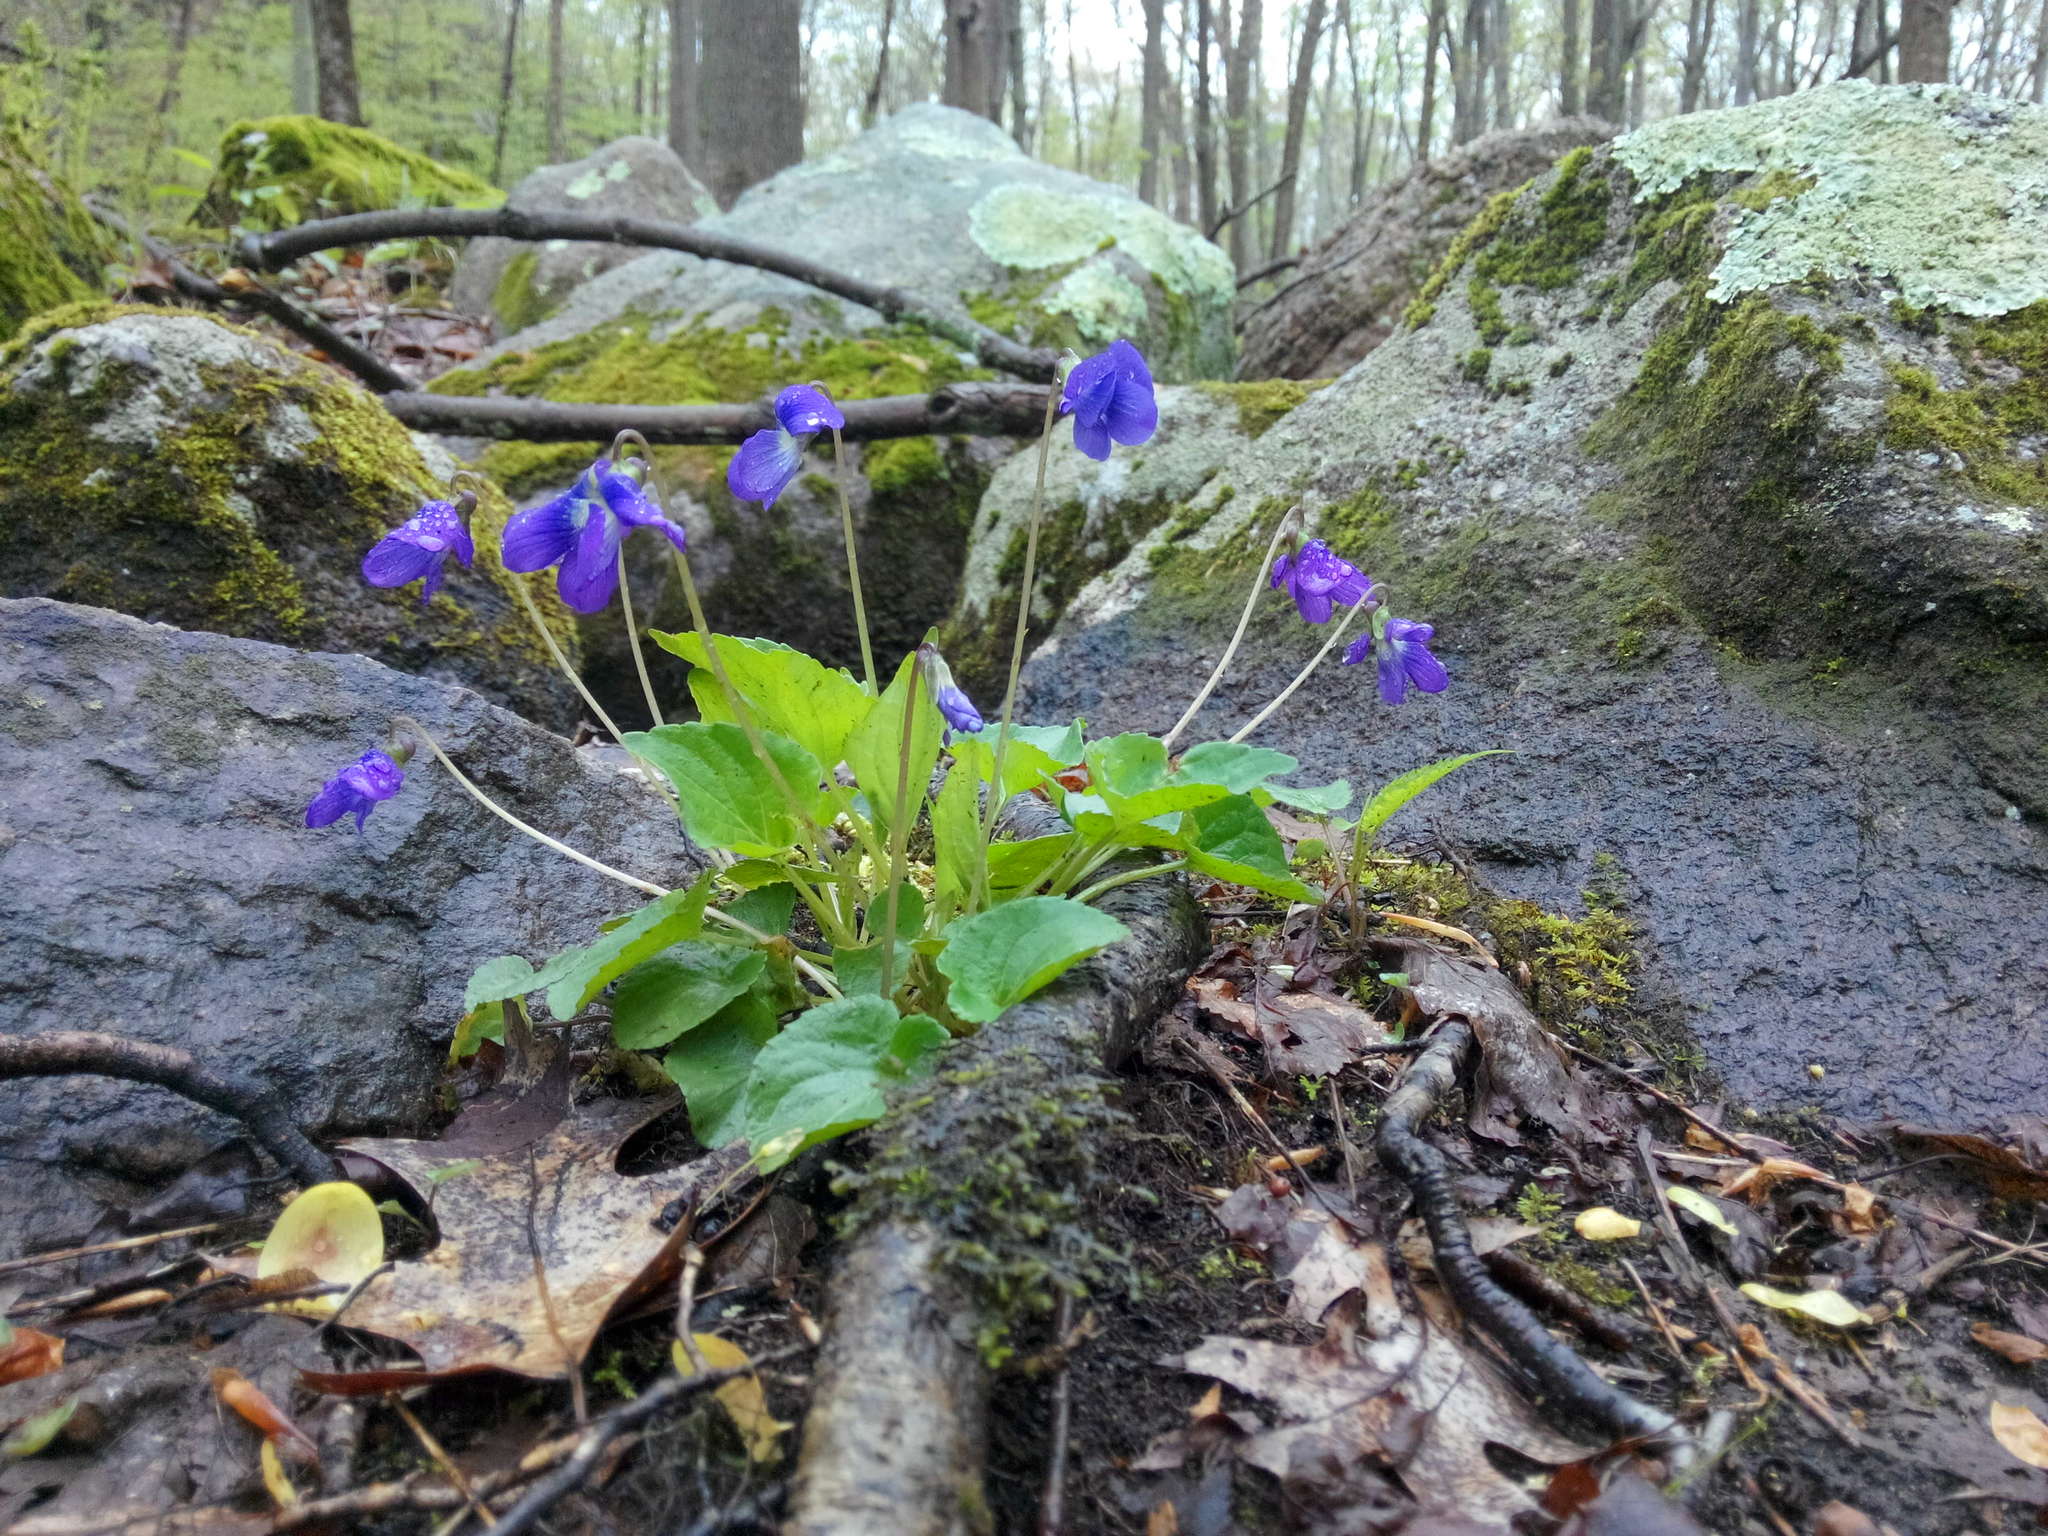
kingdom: Plantae
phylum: Tracheophyta
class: Magnoliopsida
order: Malpighiales
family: Violaceae
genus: Viola
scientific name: Viola cucullata
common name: Marsh blue violet
